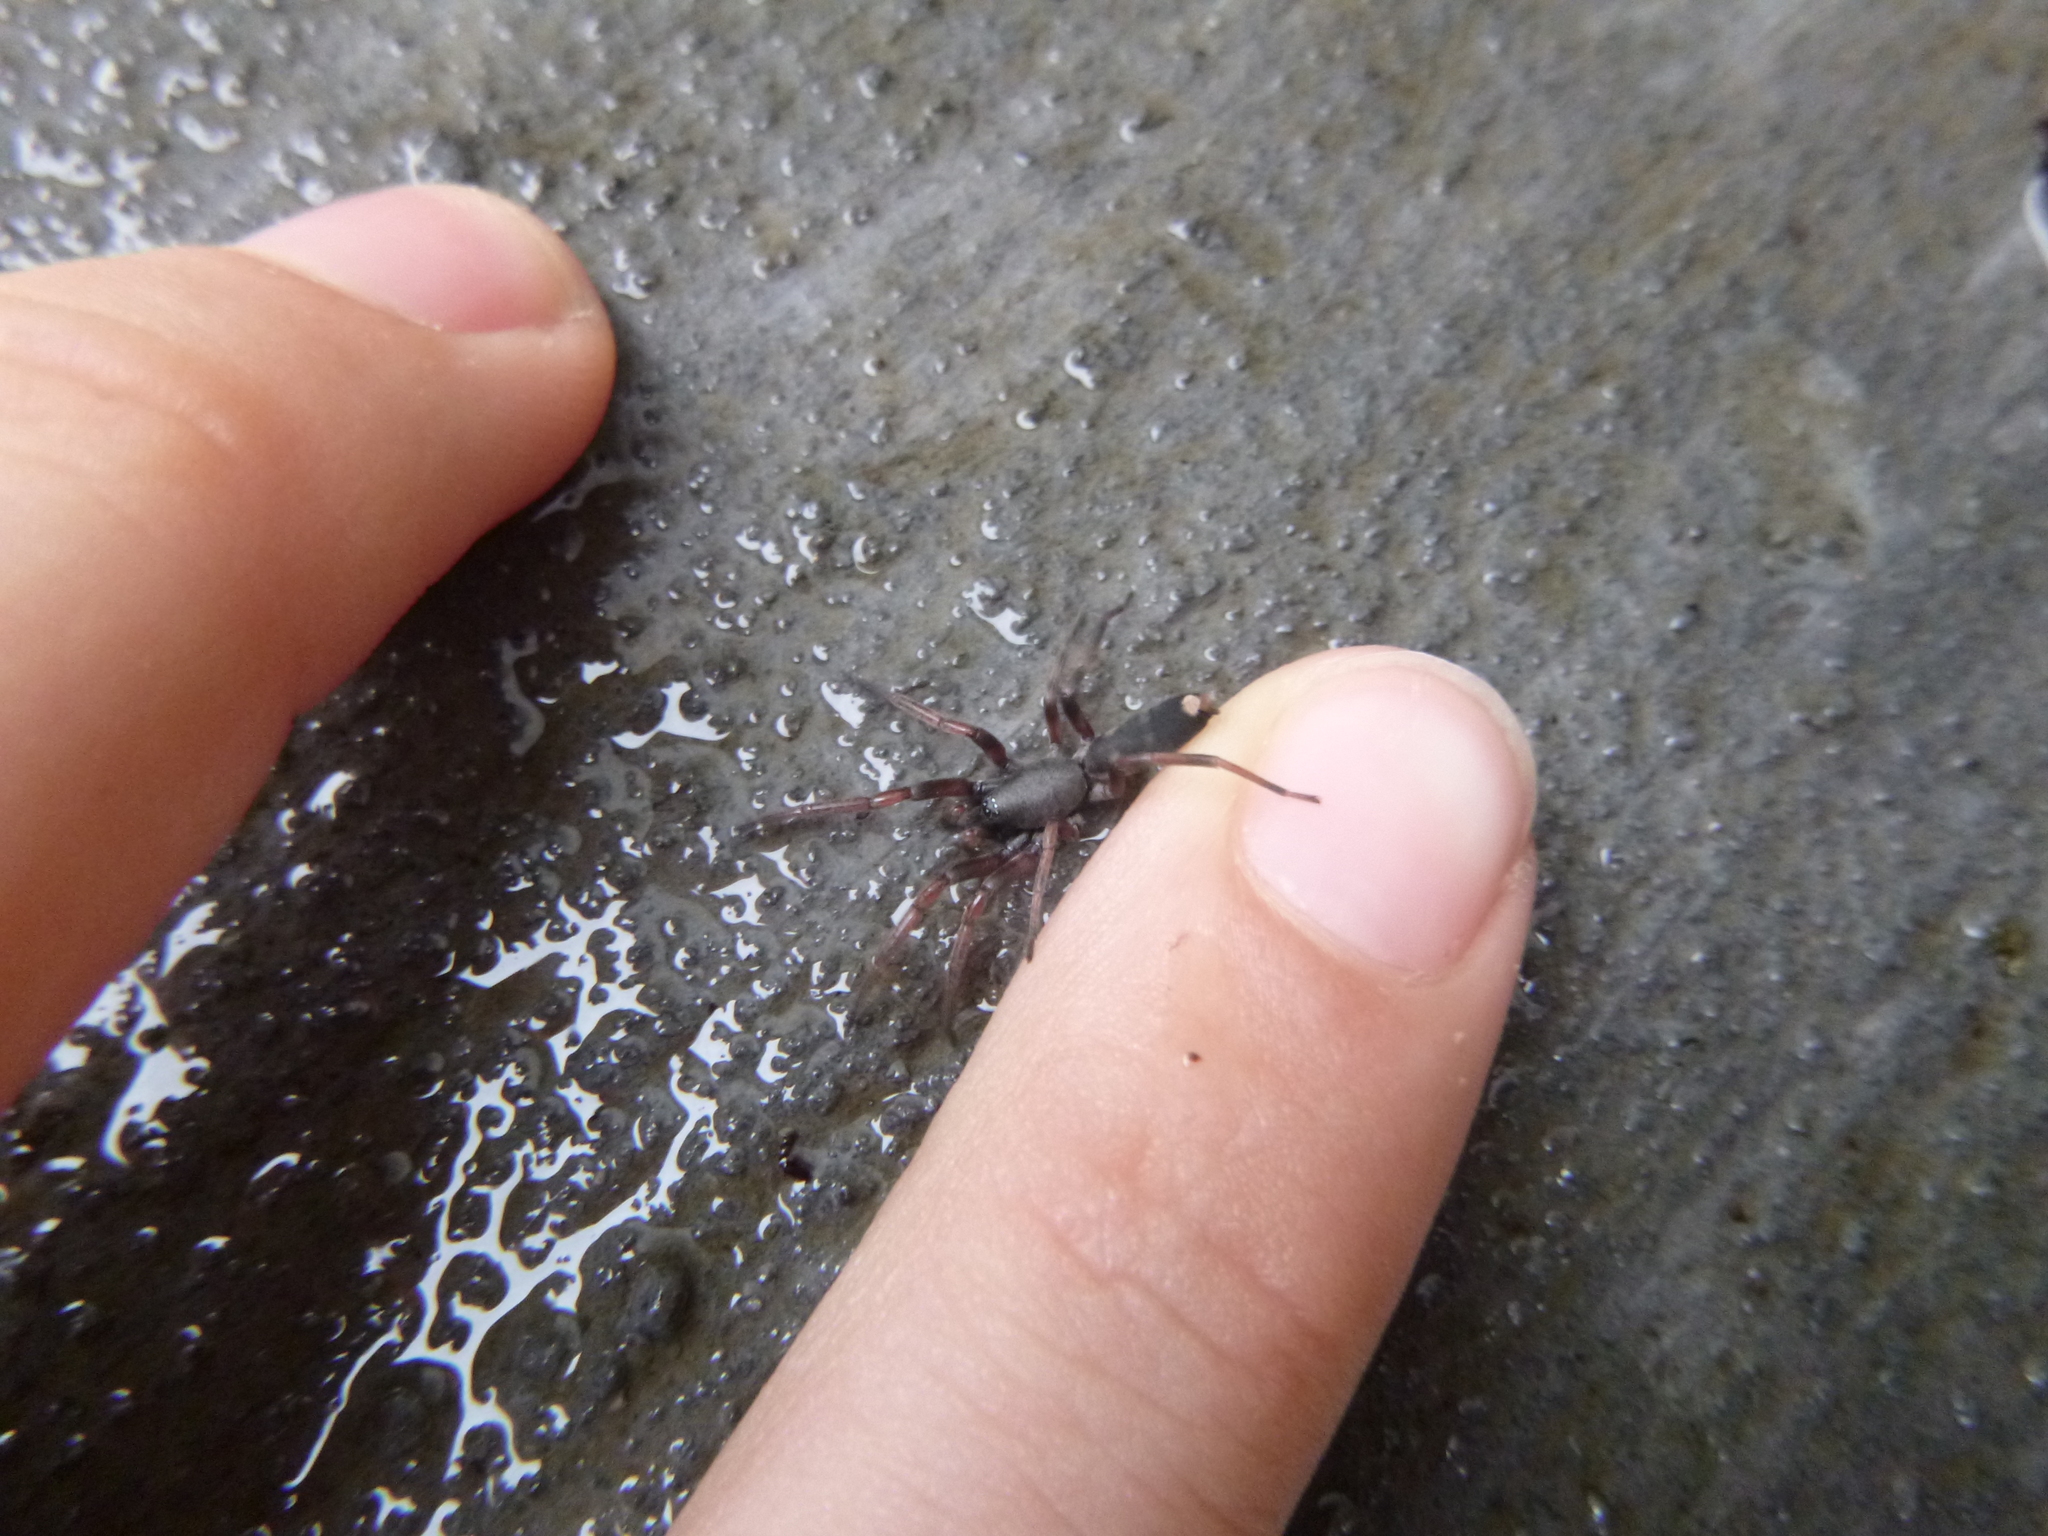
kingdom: Animalia
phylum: Arthropoda
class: Arachnida
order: Araneae
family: Lamponidae
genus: Lampona
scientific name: Lampona murina
